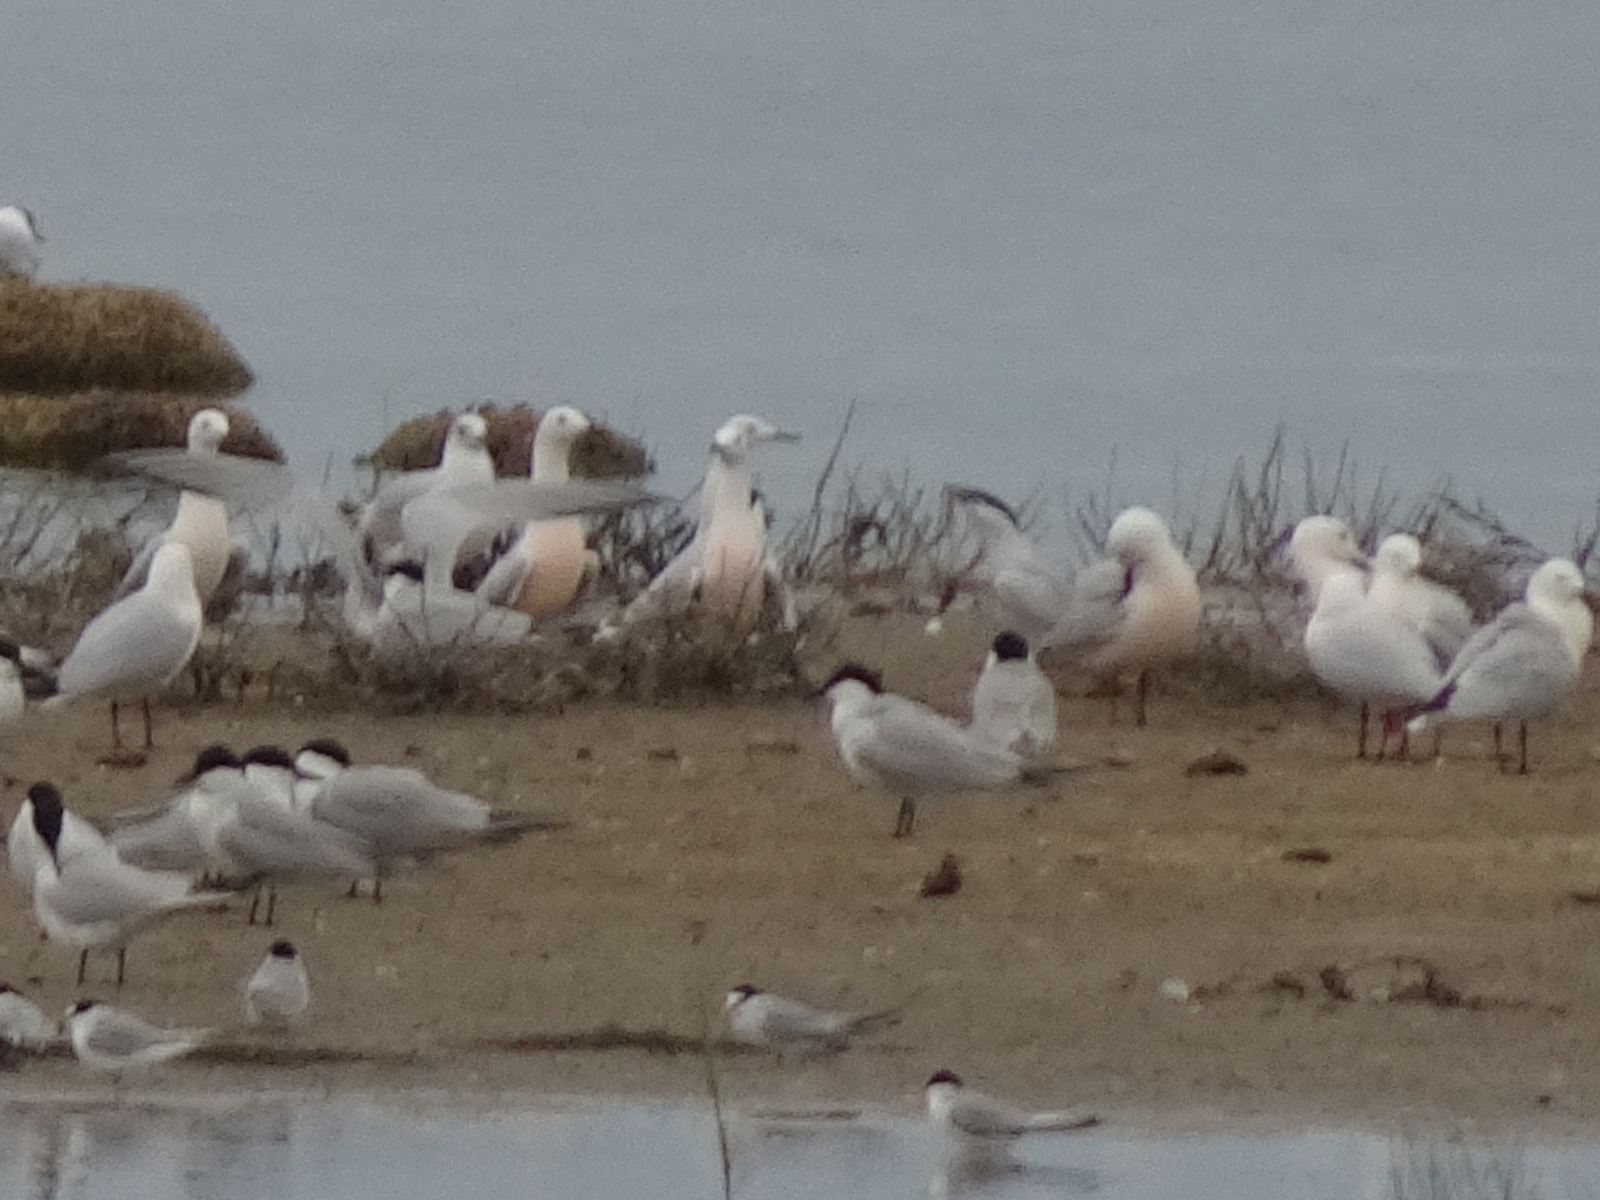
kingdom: Animalia
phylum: Chordata
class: Aves
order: Charadriiformes
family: Laridae
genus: Chroicocephalus
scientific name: Chroicocephalus genei
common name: Slender-billed gull
